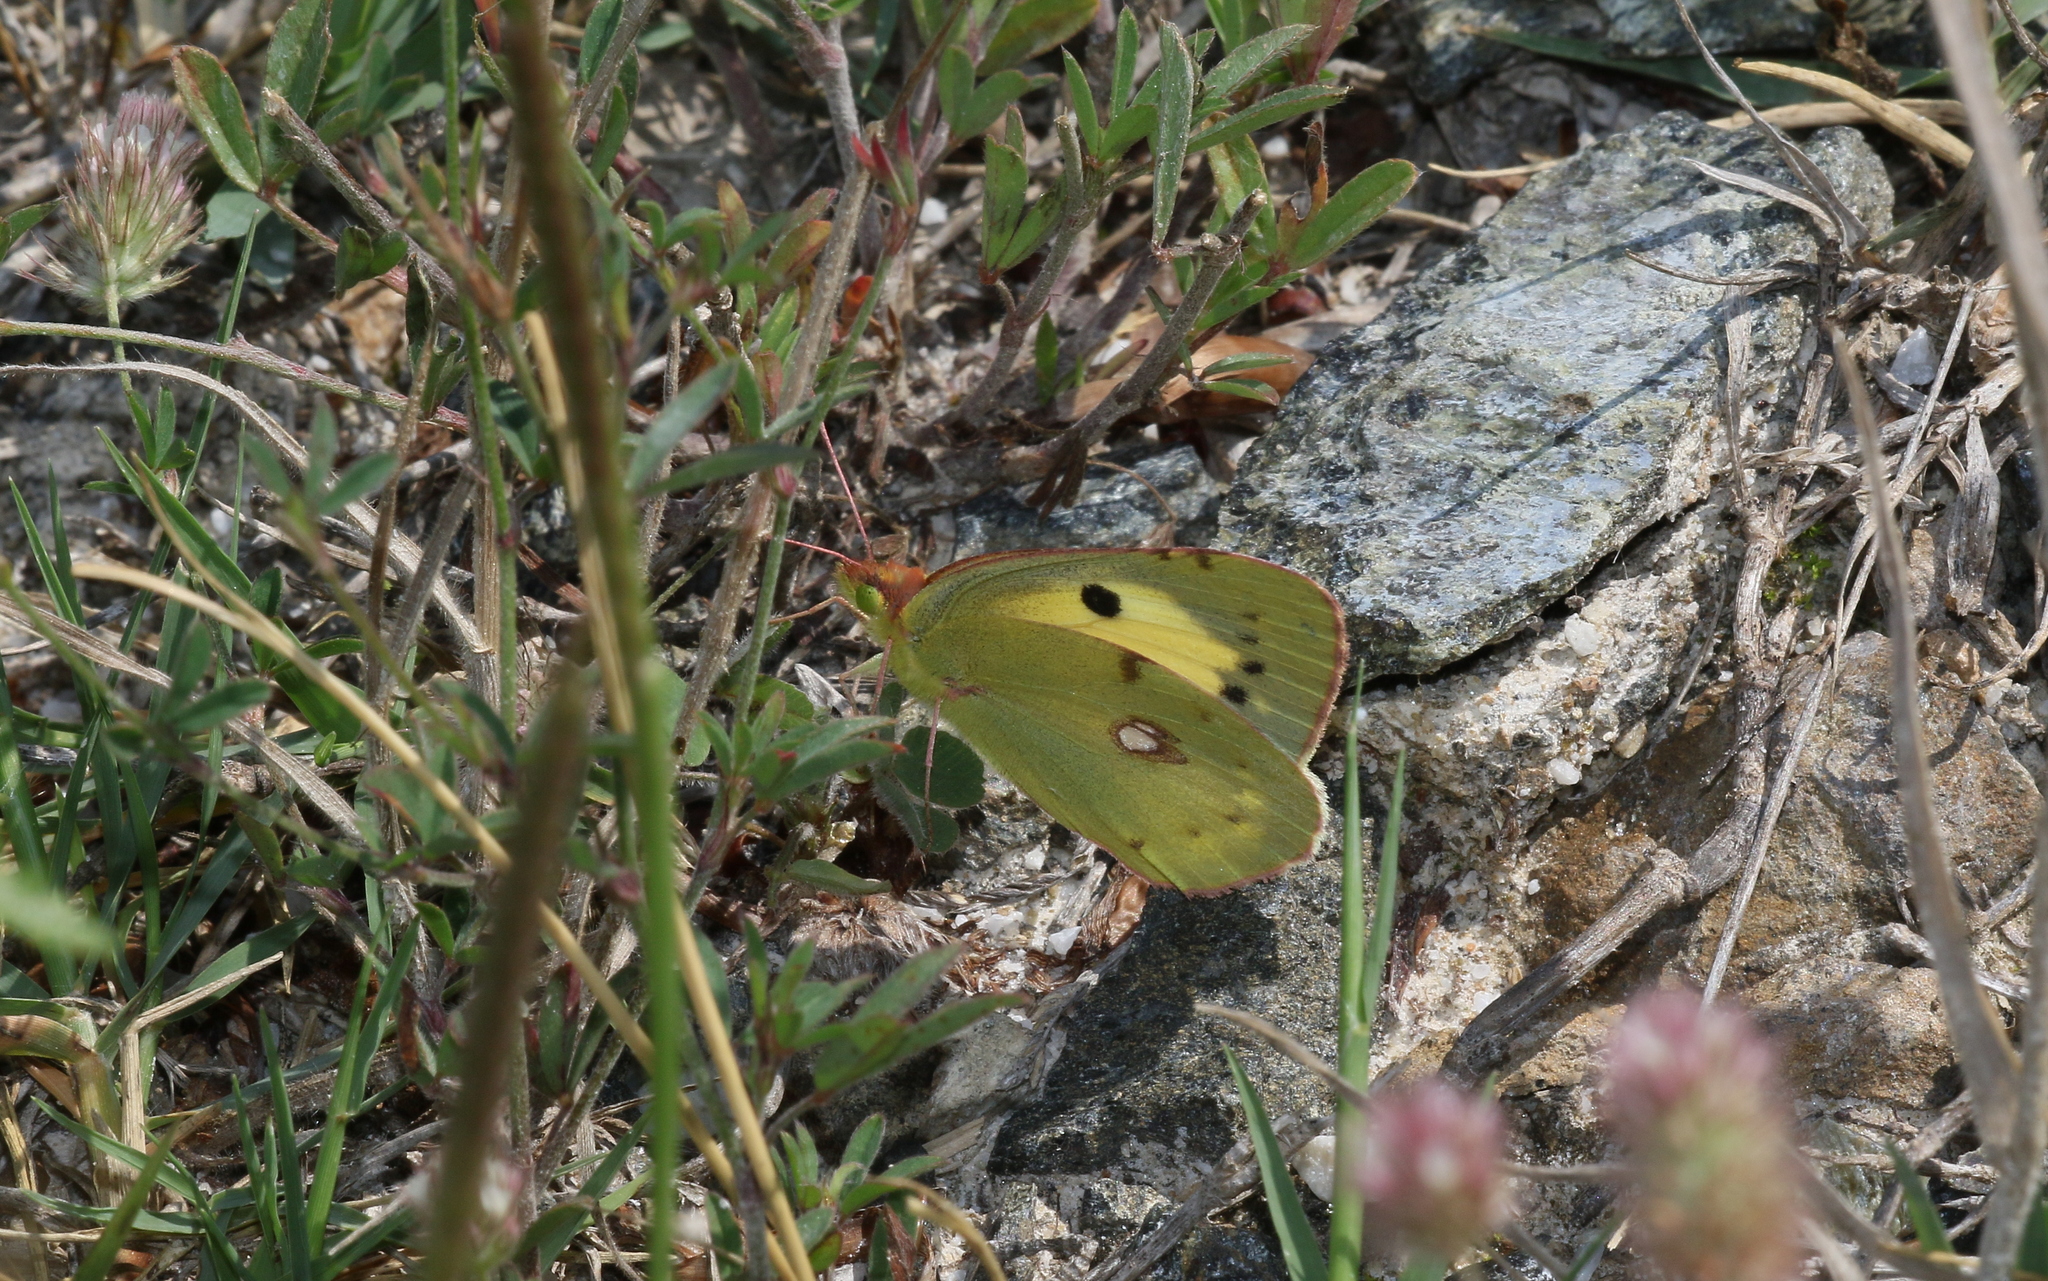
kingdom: Animalia
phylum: Arthropoda
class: Insecta
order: Lepidoptera
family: Pieridae
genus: Colias
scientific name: Colias croceus
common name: Clouded yellow
